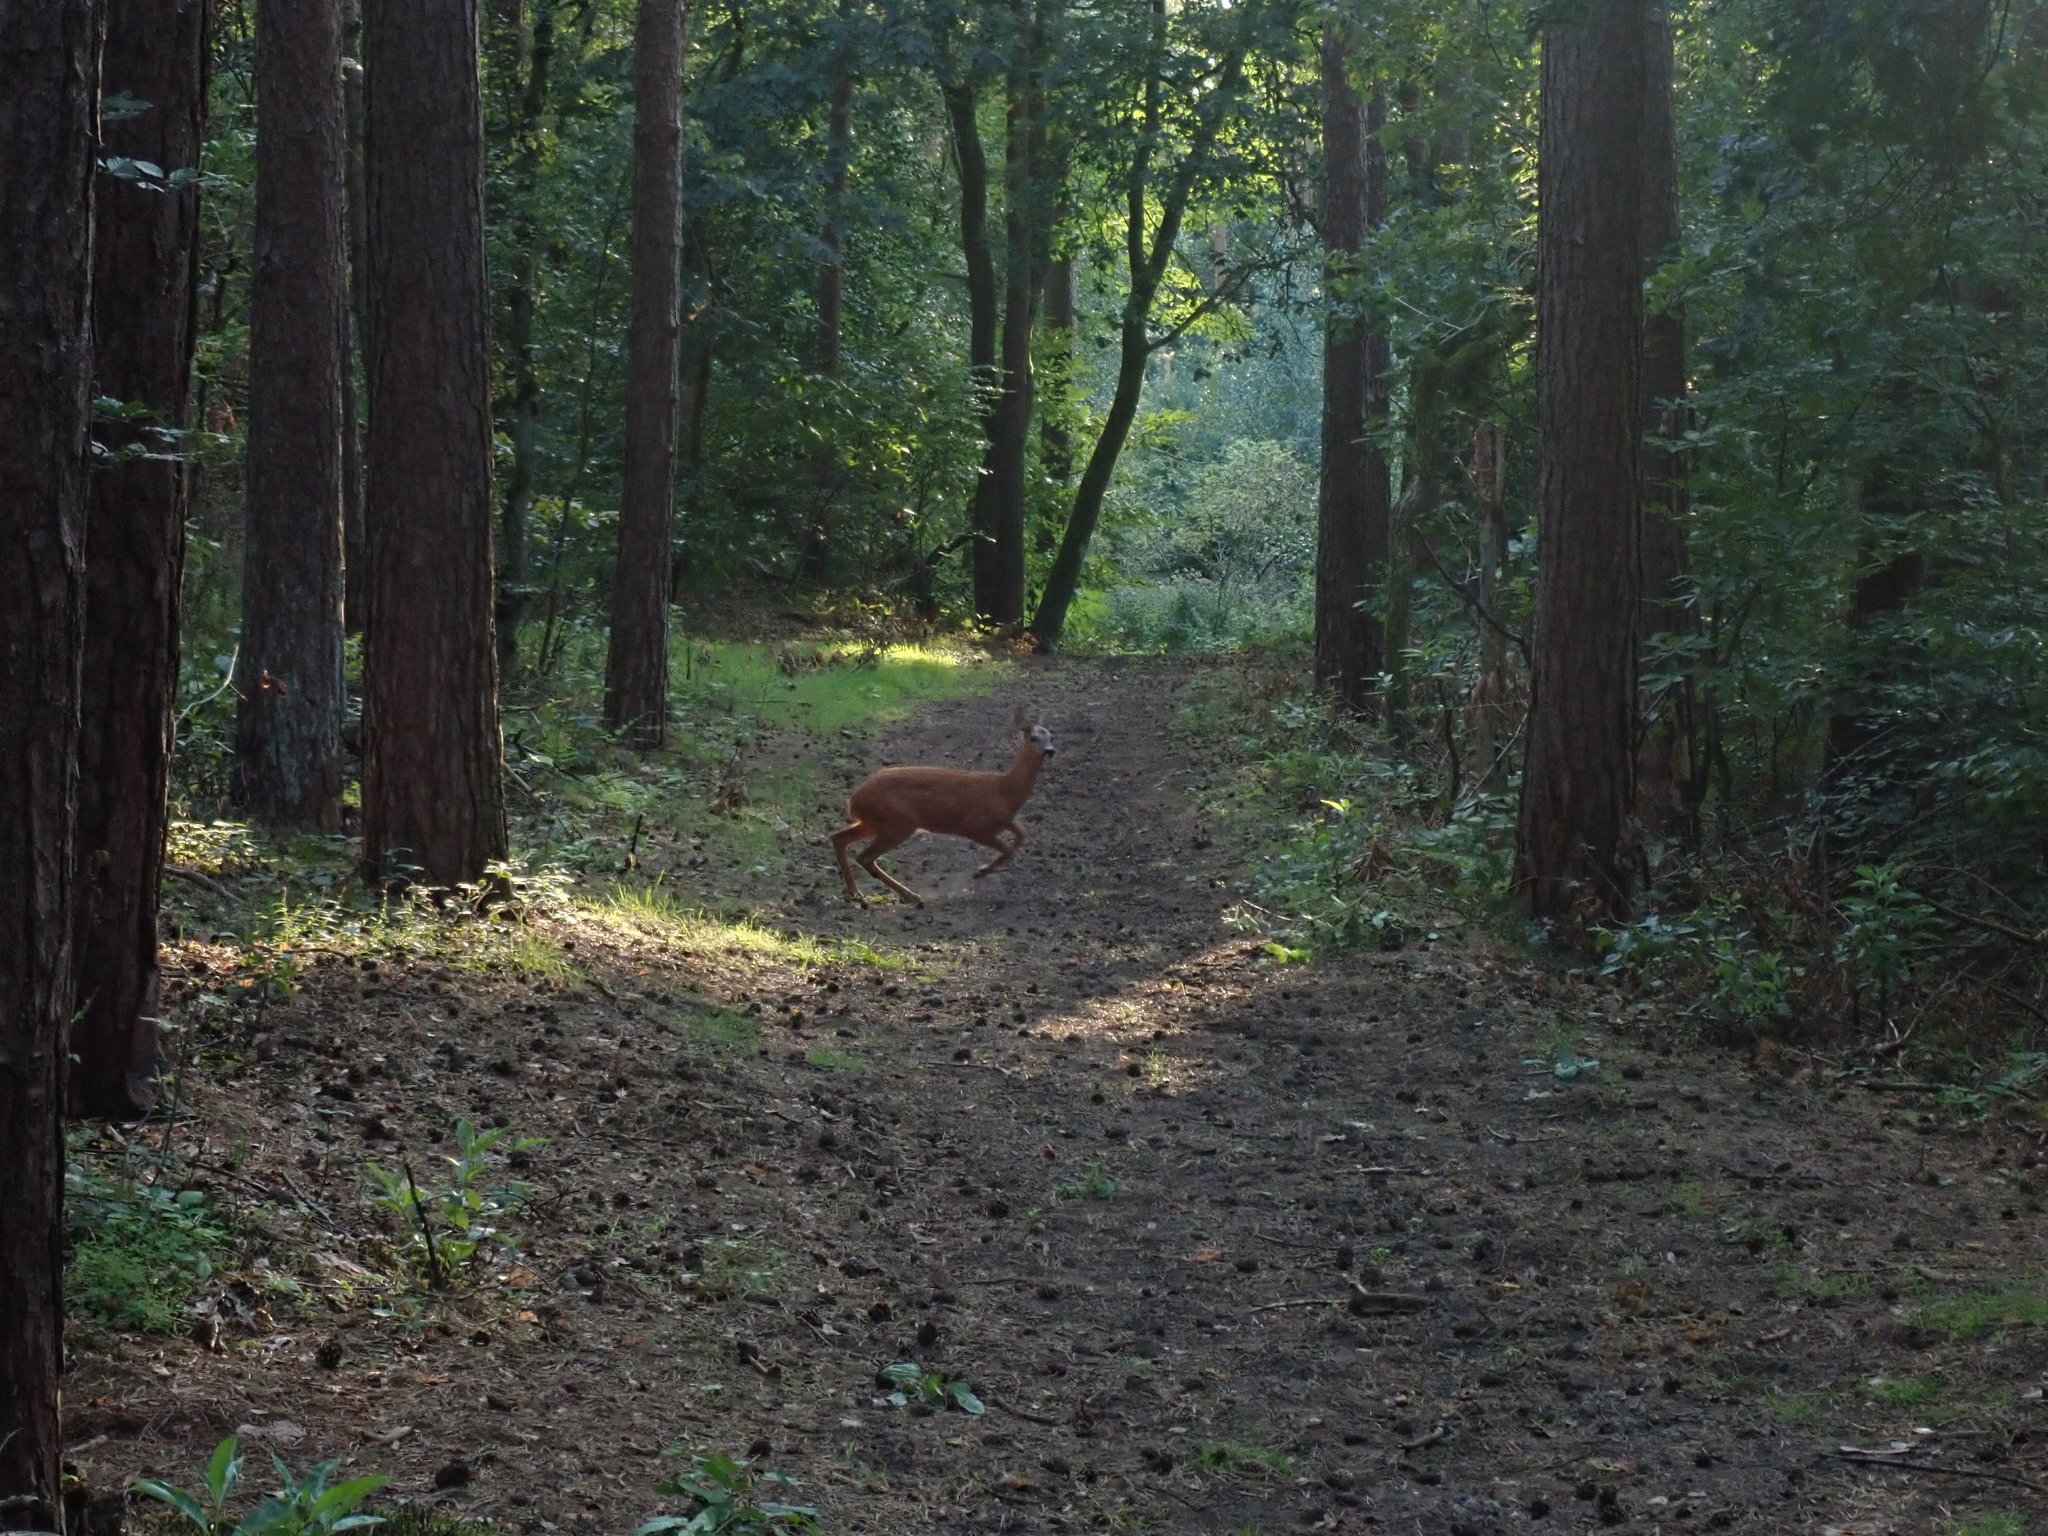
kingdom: Animalia
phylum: Chordata
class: Mammalia
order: Artiodactyla
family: Cervidae
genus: Capreolus
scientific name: Capreolus capreolus
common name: Western roe deer
